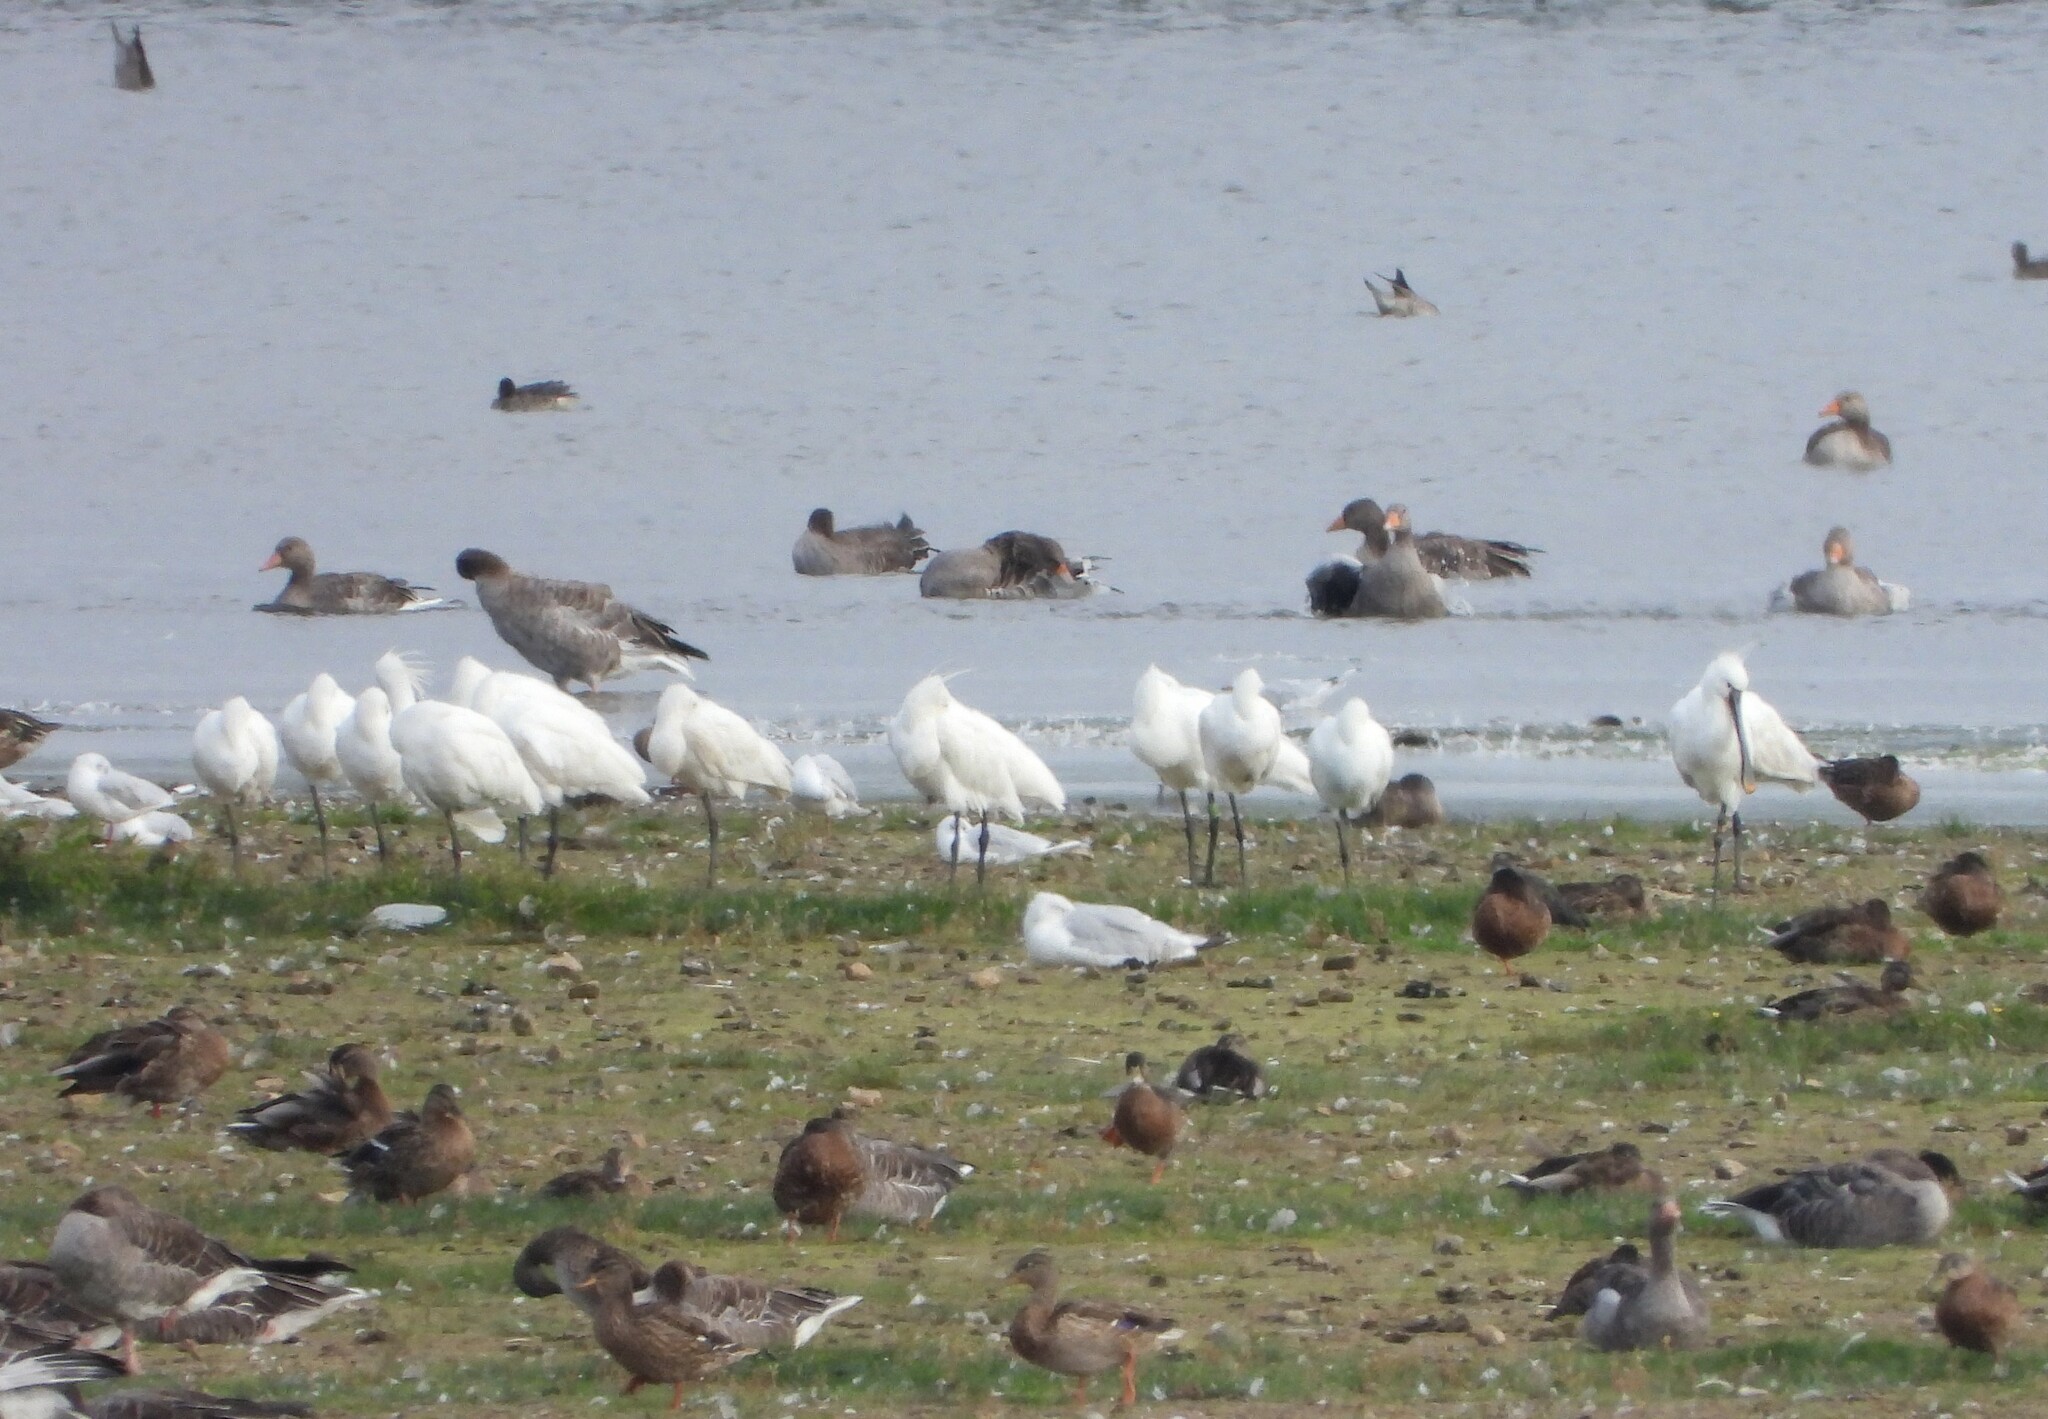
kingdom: Animalia
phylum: Chordata
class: Aves
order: Pelecaniformes
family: Threskiornithidae
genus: Platalea
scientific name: Platalea leucorodia
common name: Eurasian spoonbill
